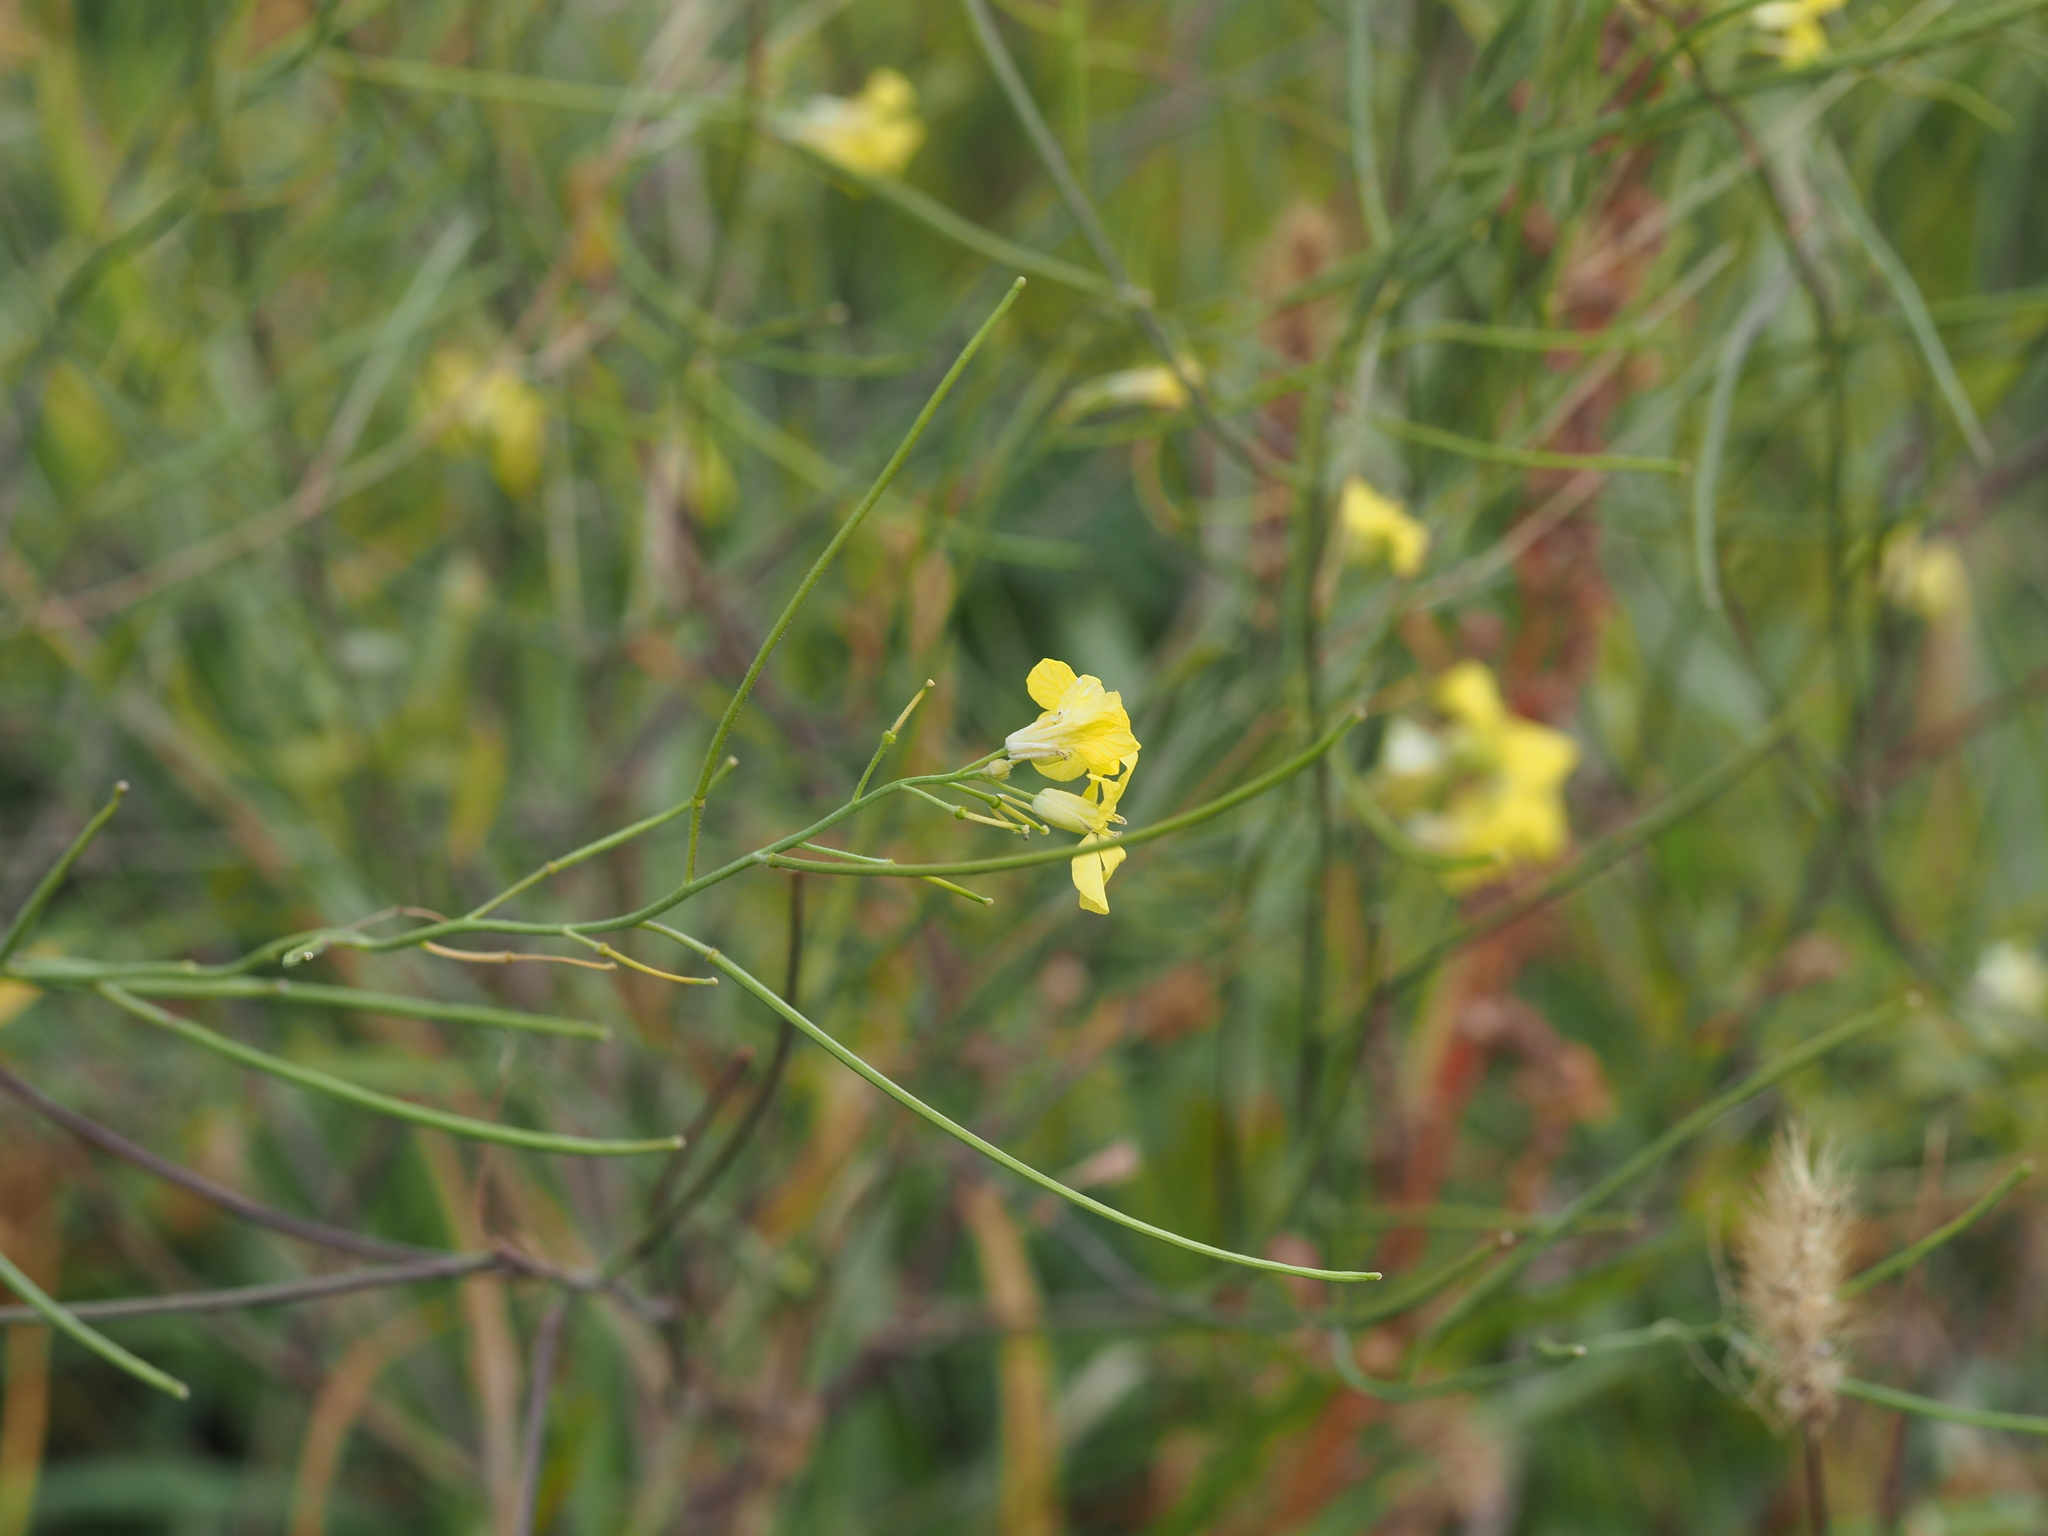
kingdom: Plantae
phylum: Tracheophyta
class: Magnoliopsida
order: Brassicales
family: Brassicaceae
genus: Sisymbrium
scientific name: Sisymbrium orientale
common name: Eastern rocket
